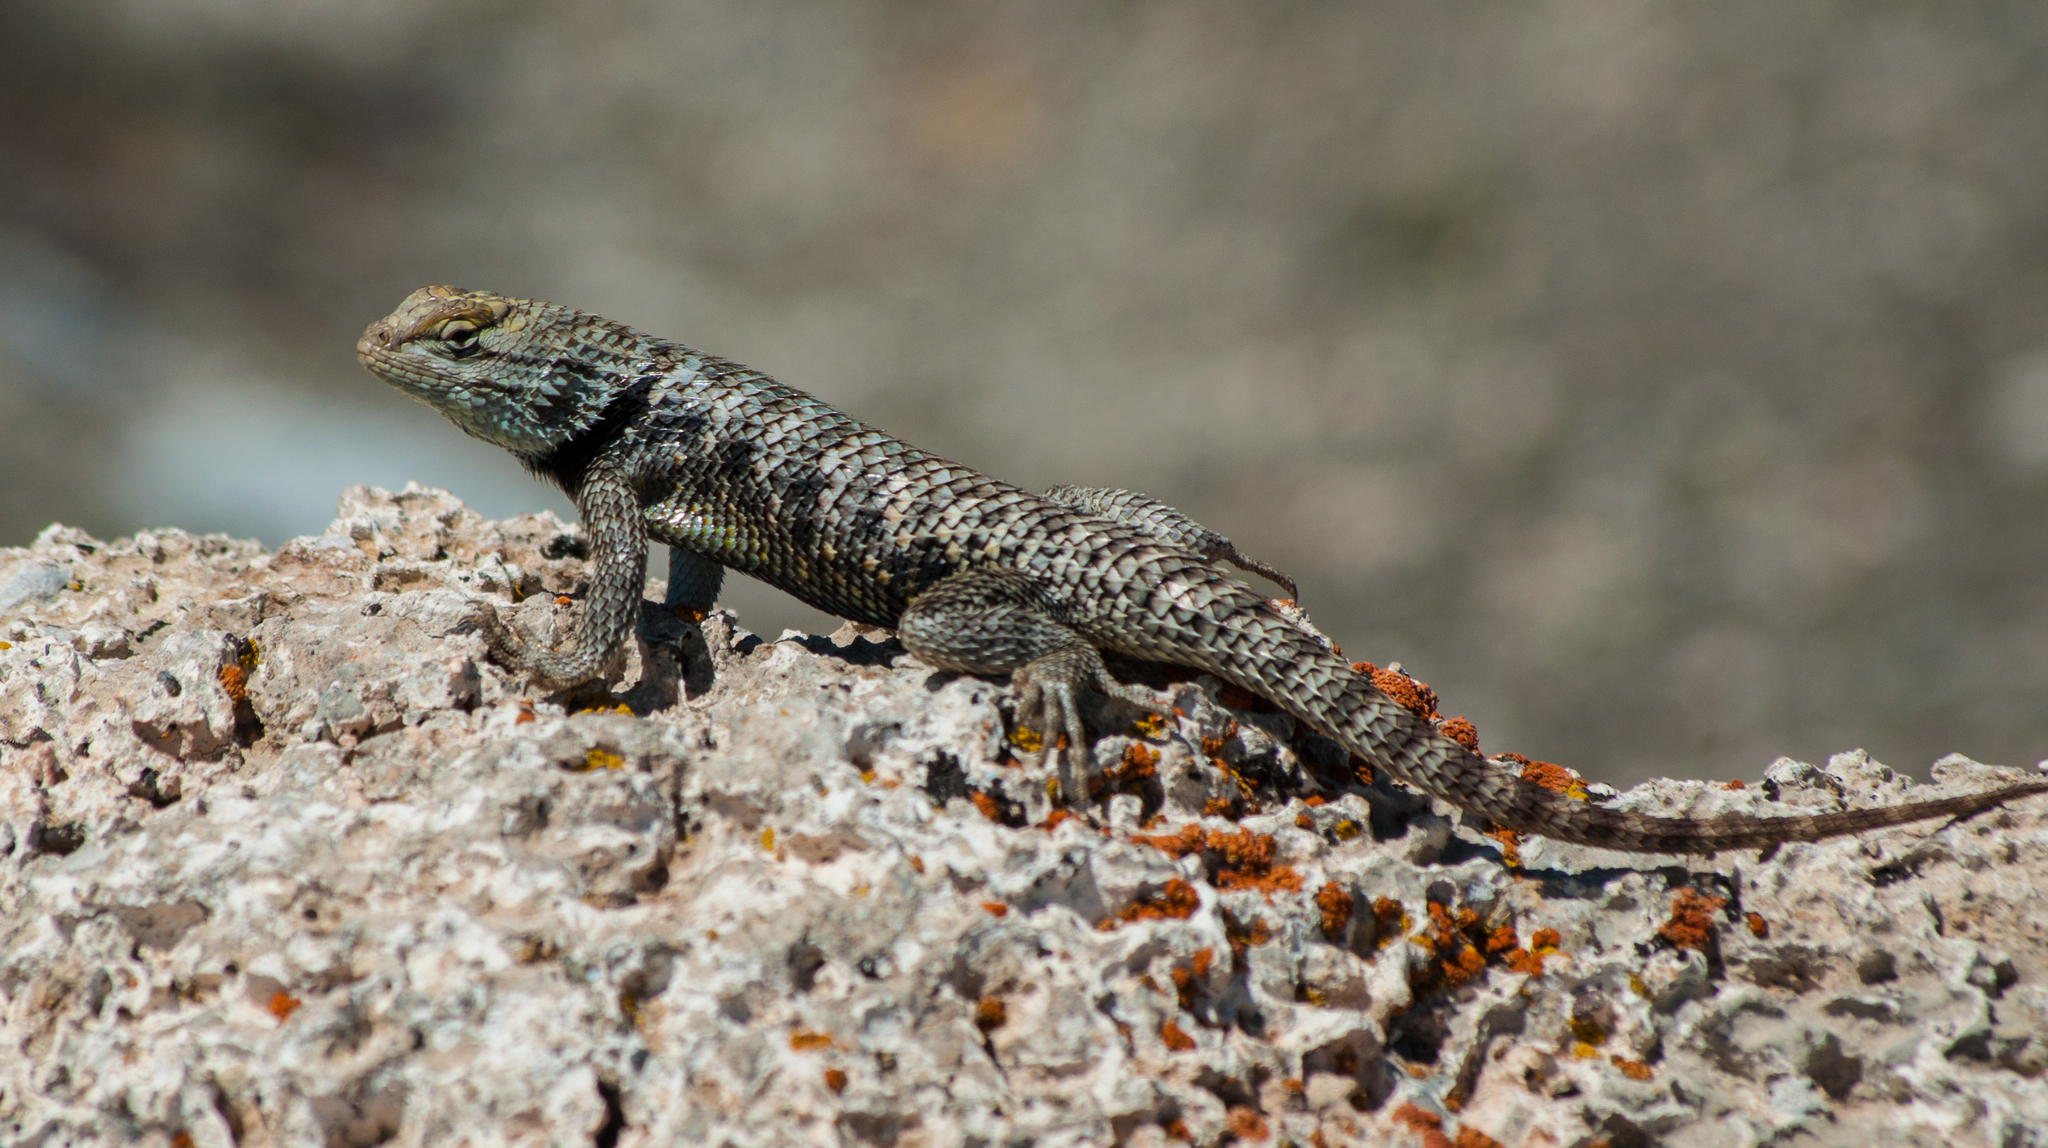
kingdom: Animalia
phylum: Chordata
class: Squamata
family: Phrynosomatidae
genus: Sceloporus
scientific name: Sceloporus uniformis
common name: Yellow-backed spiny lizard
